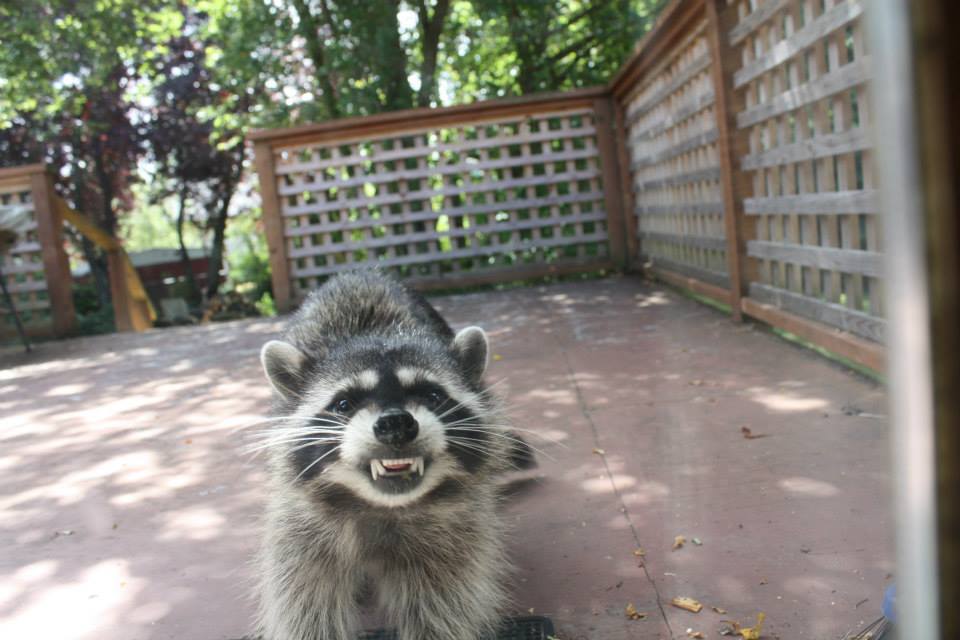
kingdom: Animalia
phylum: Chordata
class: Mammalia
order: Carnivora
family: Procyonidae
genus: Procyon
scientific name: Procyon lotor
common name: Raccoon
